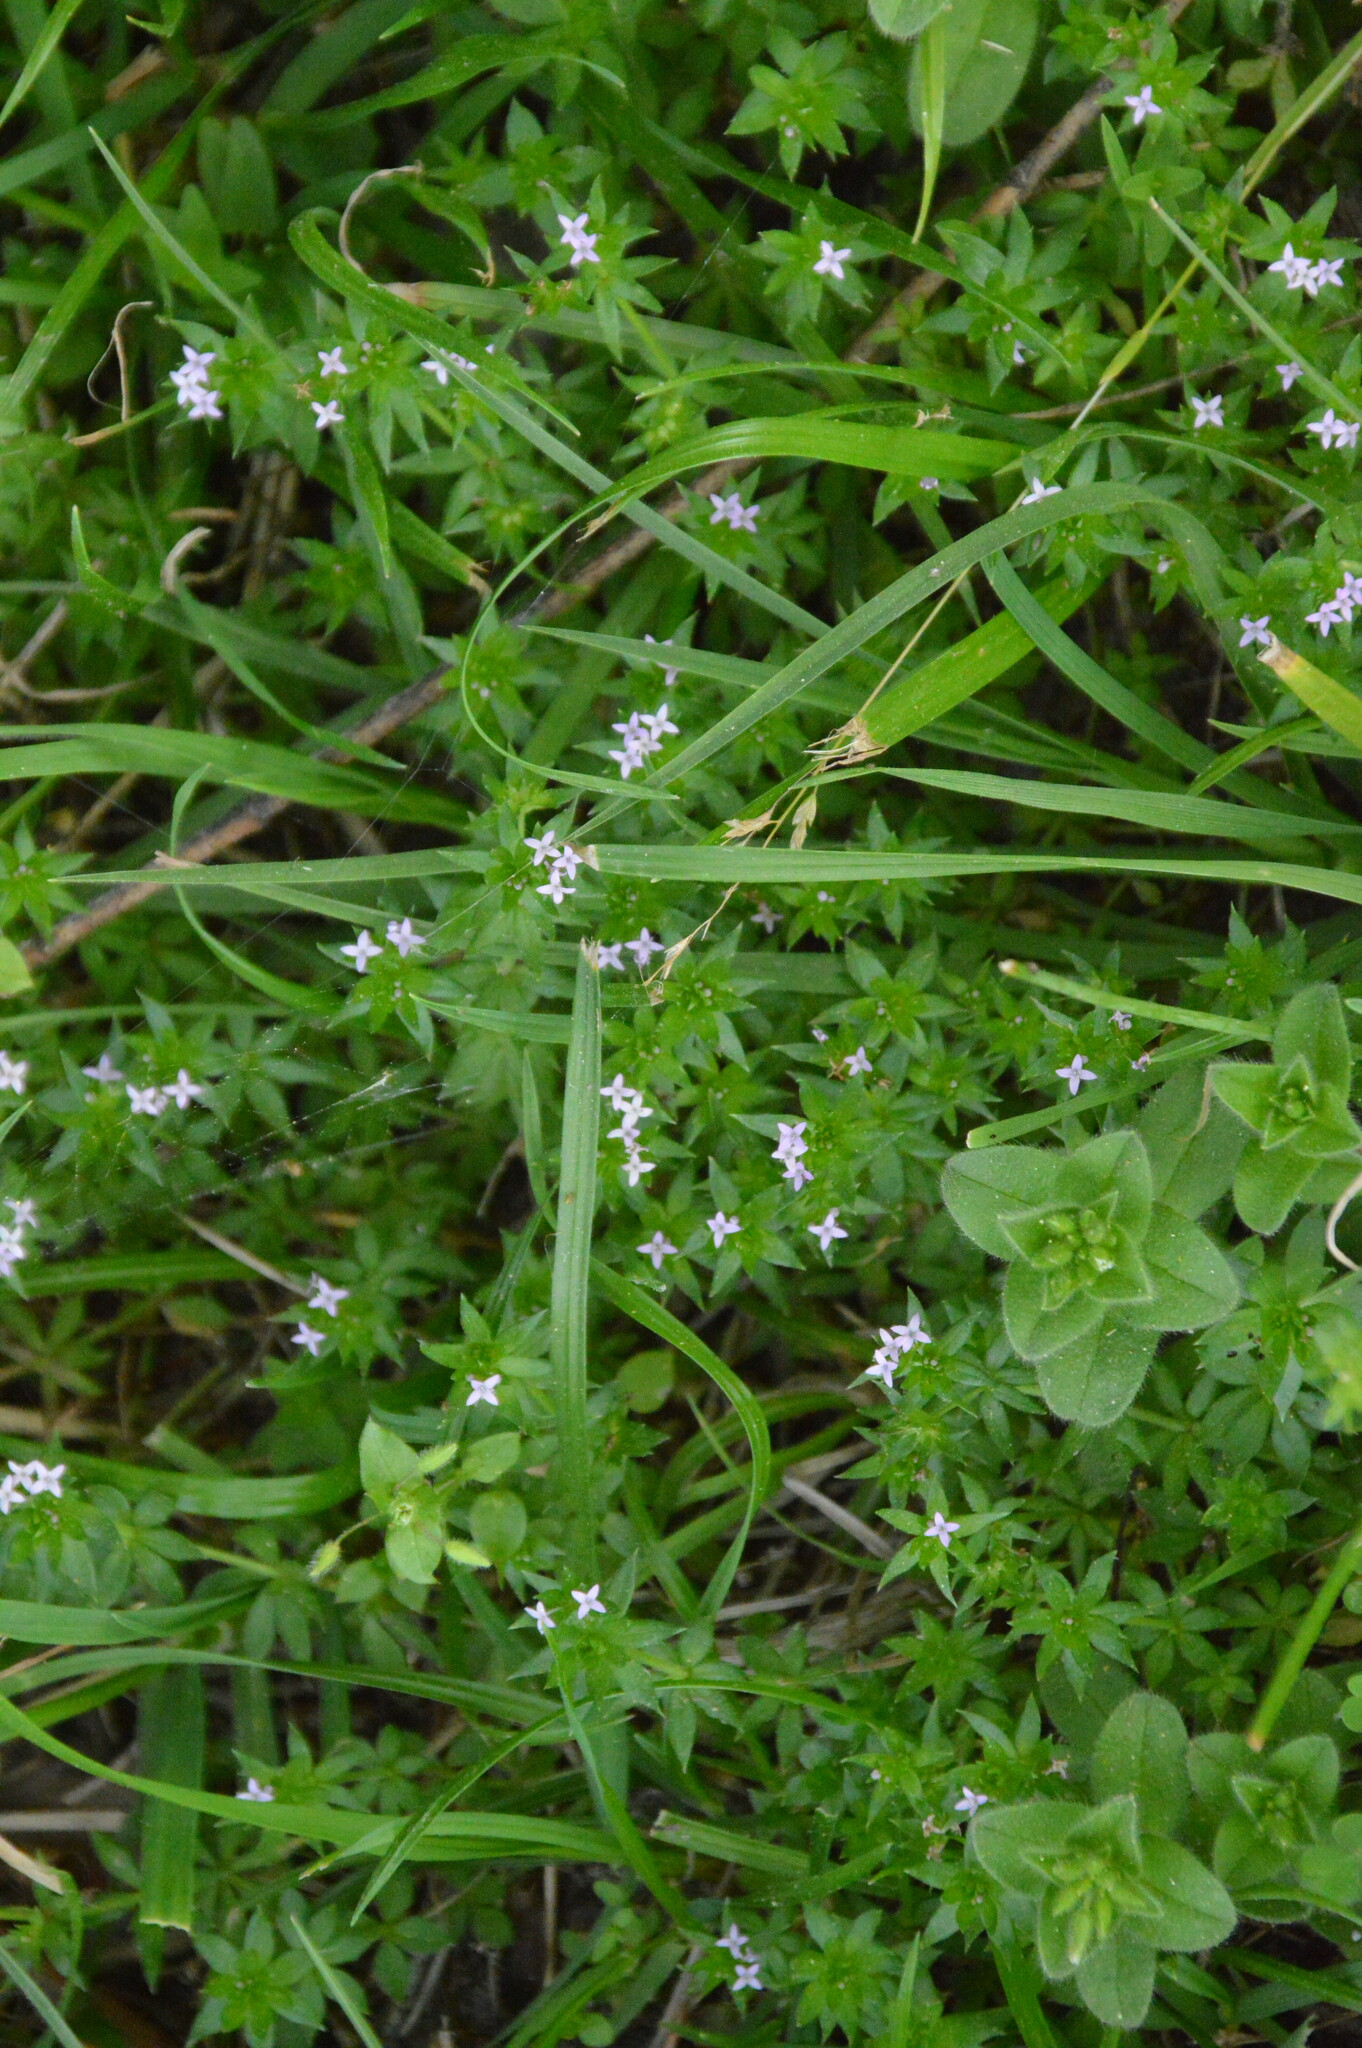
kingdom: Plantae
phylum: Tracheophyta
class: Magnoliopsida
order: Gentianales
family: Rubiaceae
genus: Sherardia
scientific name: Sherardia arvensis
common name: Field madder
